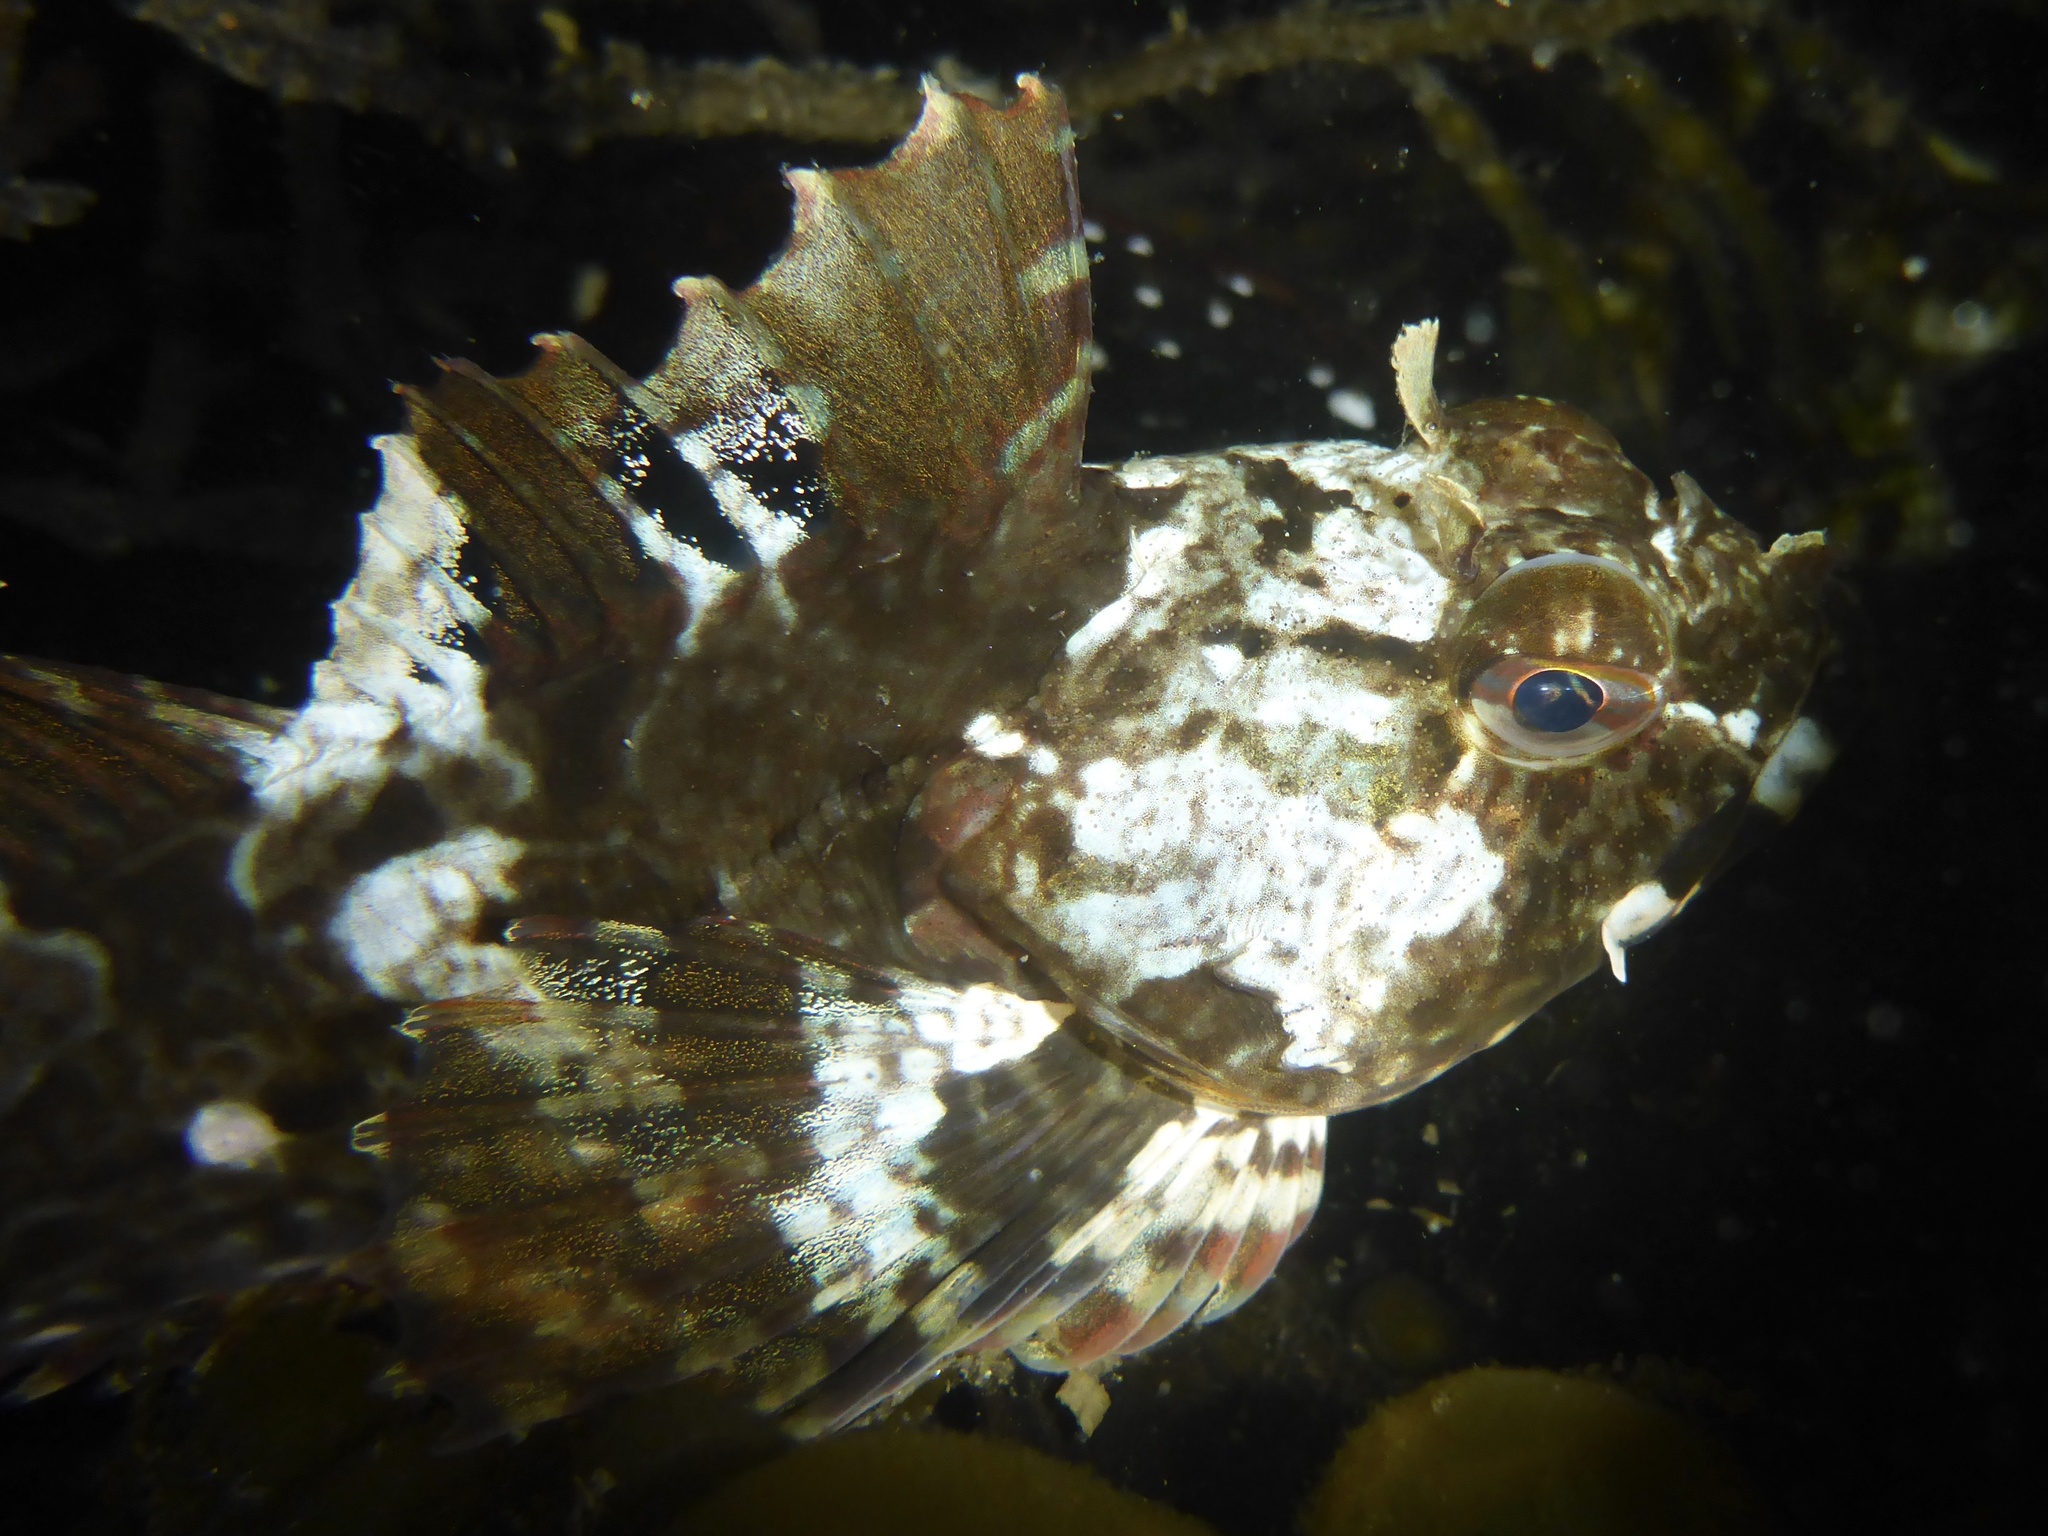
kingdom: Animalia
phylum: Chordata
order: Scorpaeniformes
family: Cottidae
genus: Scorpaenichthys
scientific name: Scorpaenichthys marmoratus
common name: Cabezon
